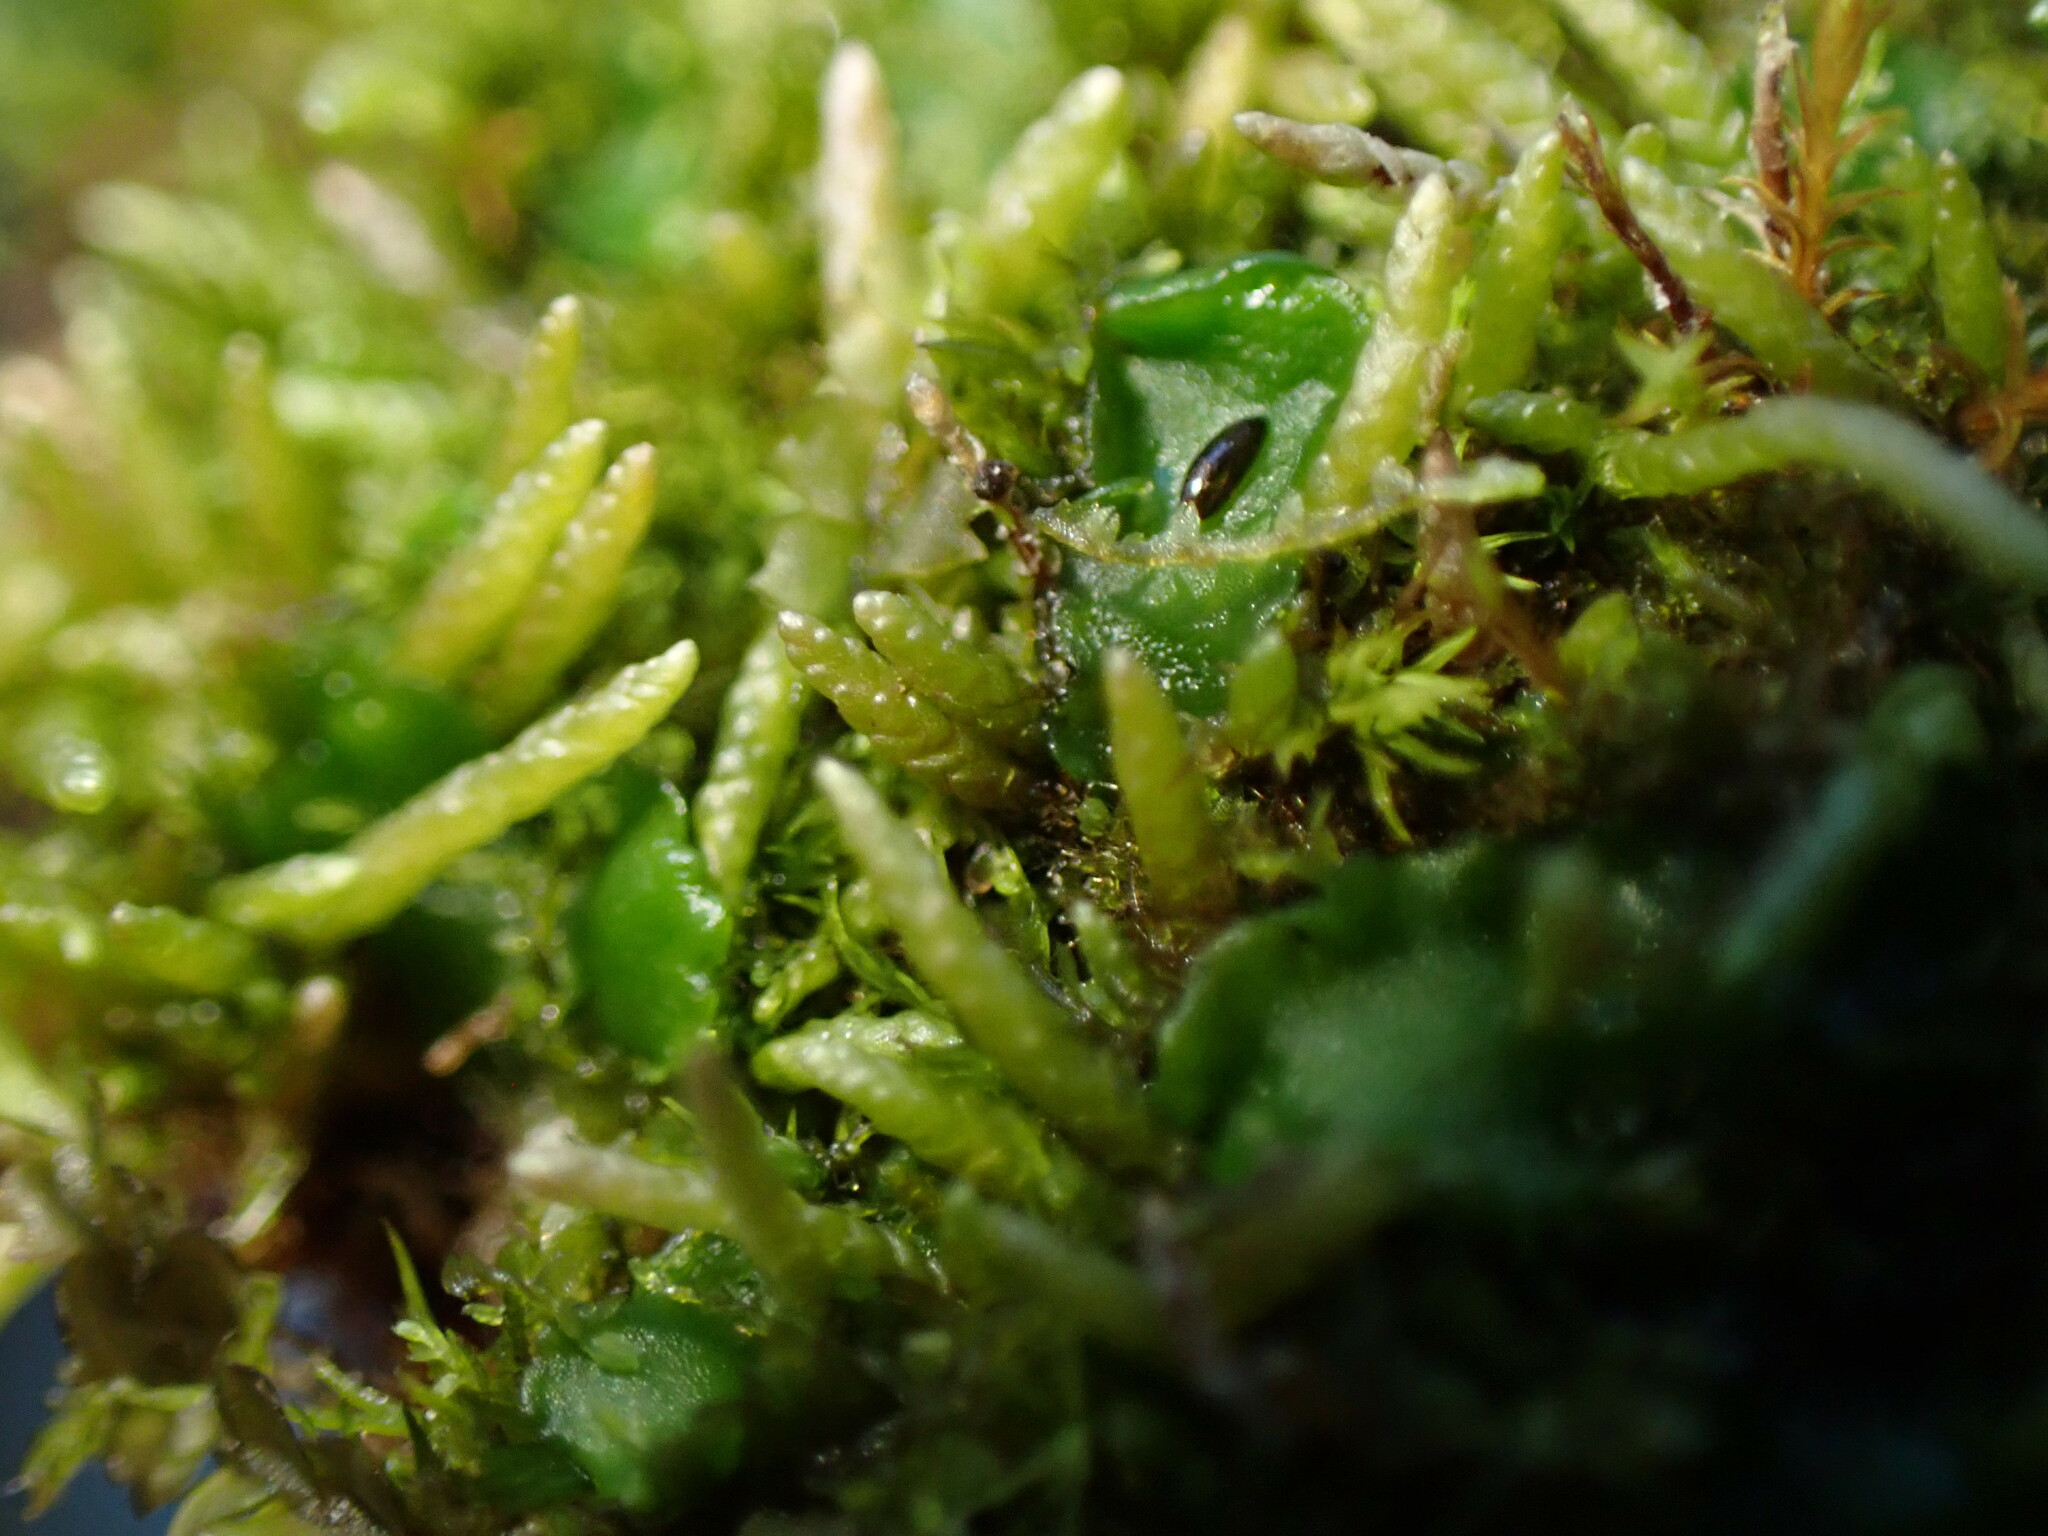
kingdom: Plantae
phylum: Bryophyta
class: Bryopsida
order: Hypnales
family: Brachytheciaceae
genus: Pseudoscleropodium
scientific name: Pseudoscleropodium purum
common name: Neat feather-moss
